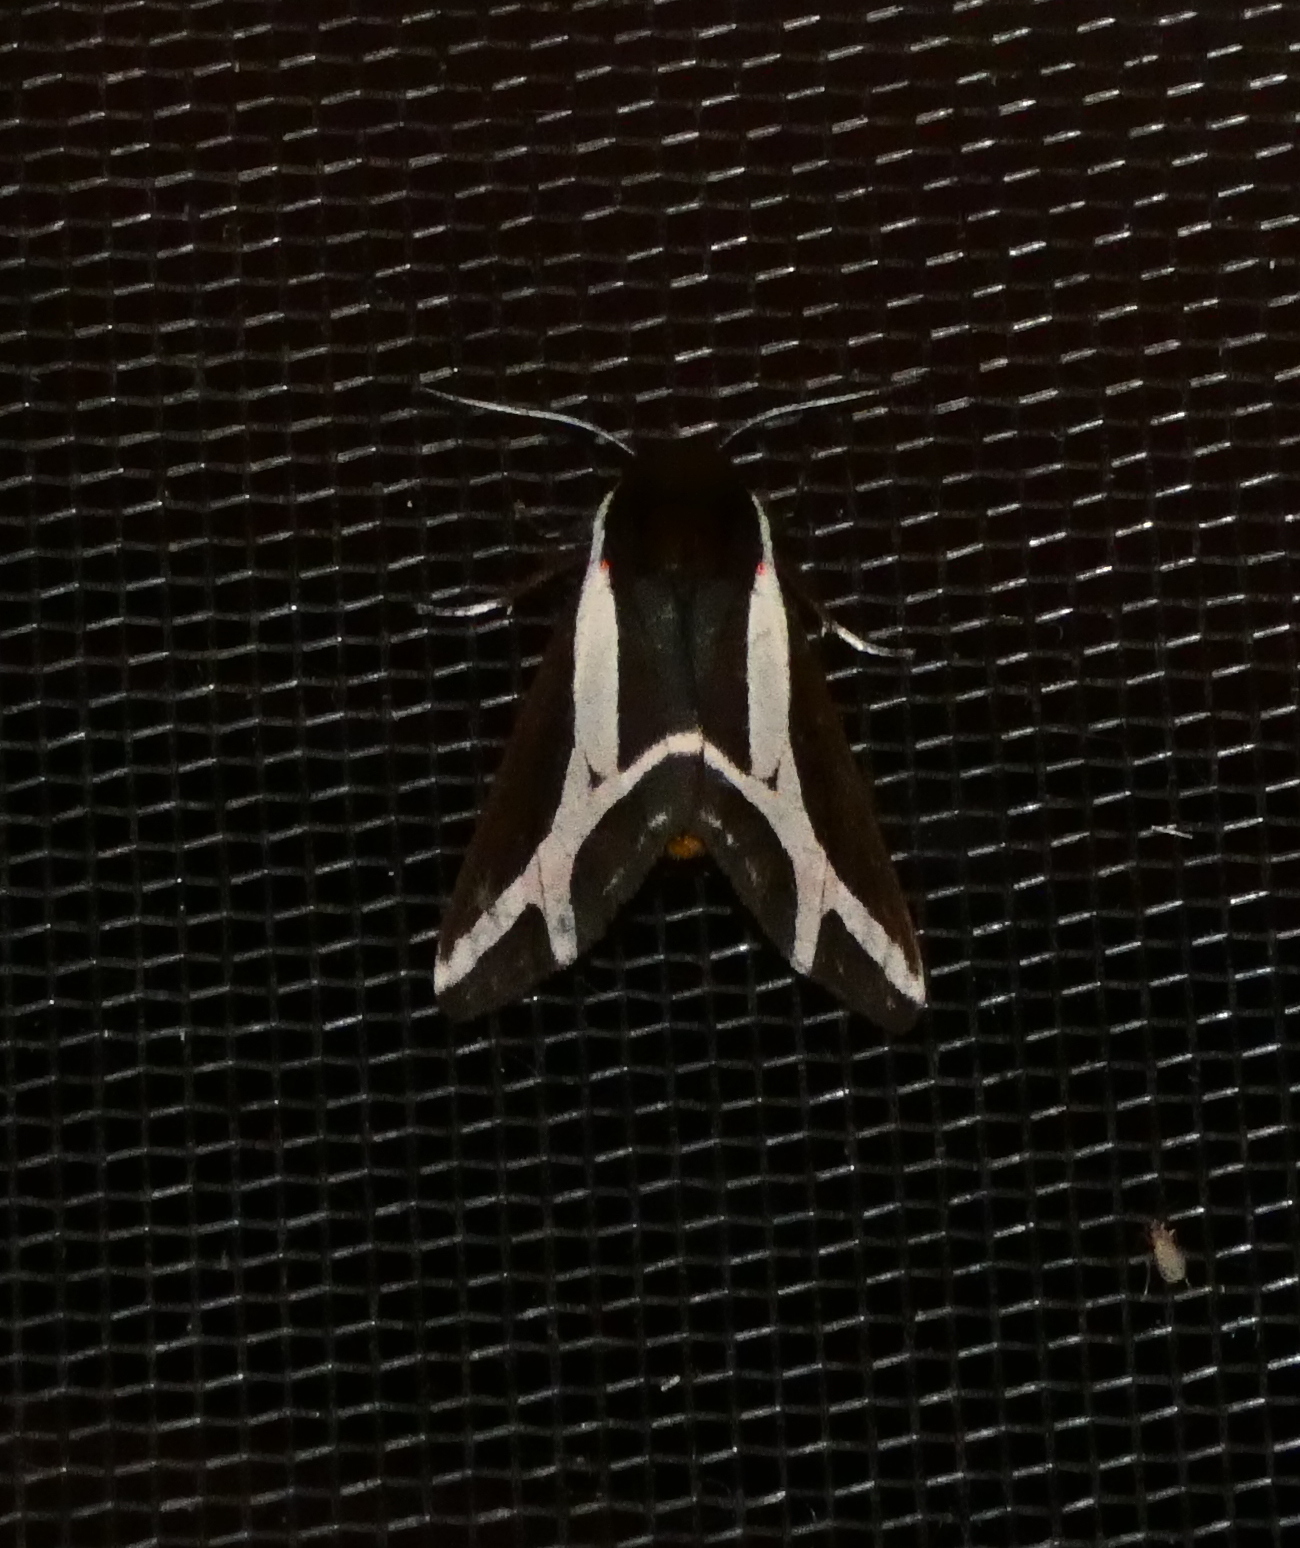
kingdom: Animalia
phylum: Arthropoda
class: Insecta
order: Lepidoptera
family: Erebidae
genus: Dysschema
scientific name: Dysschema sacrifica
